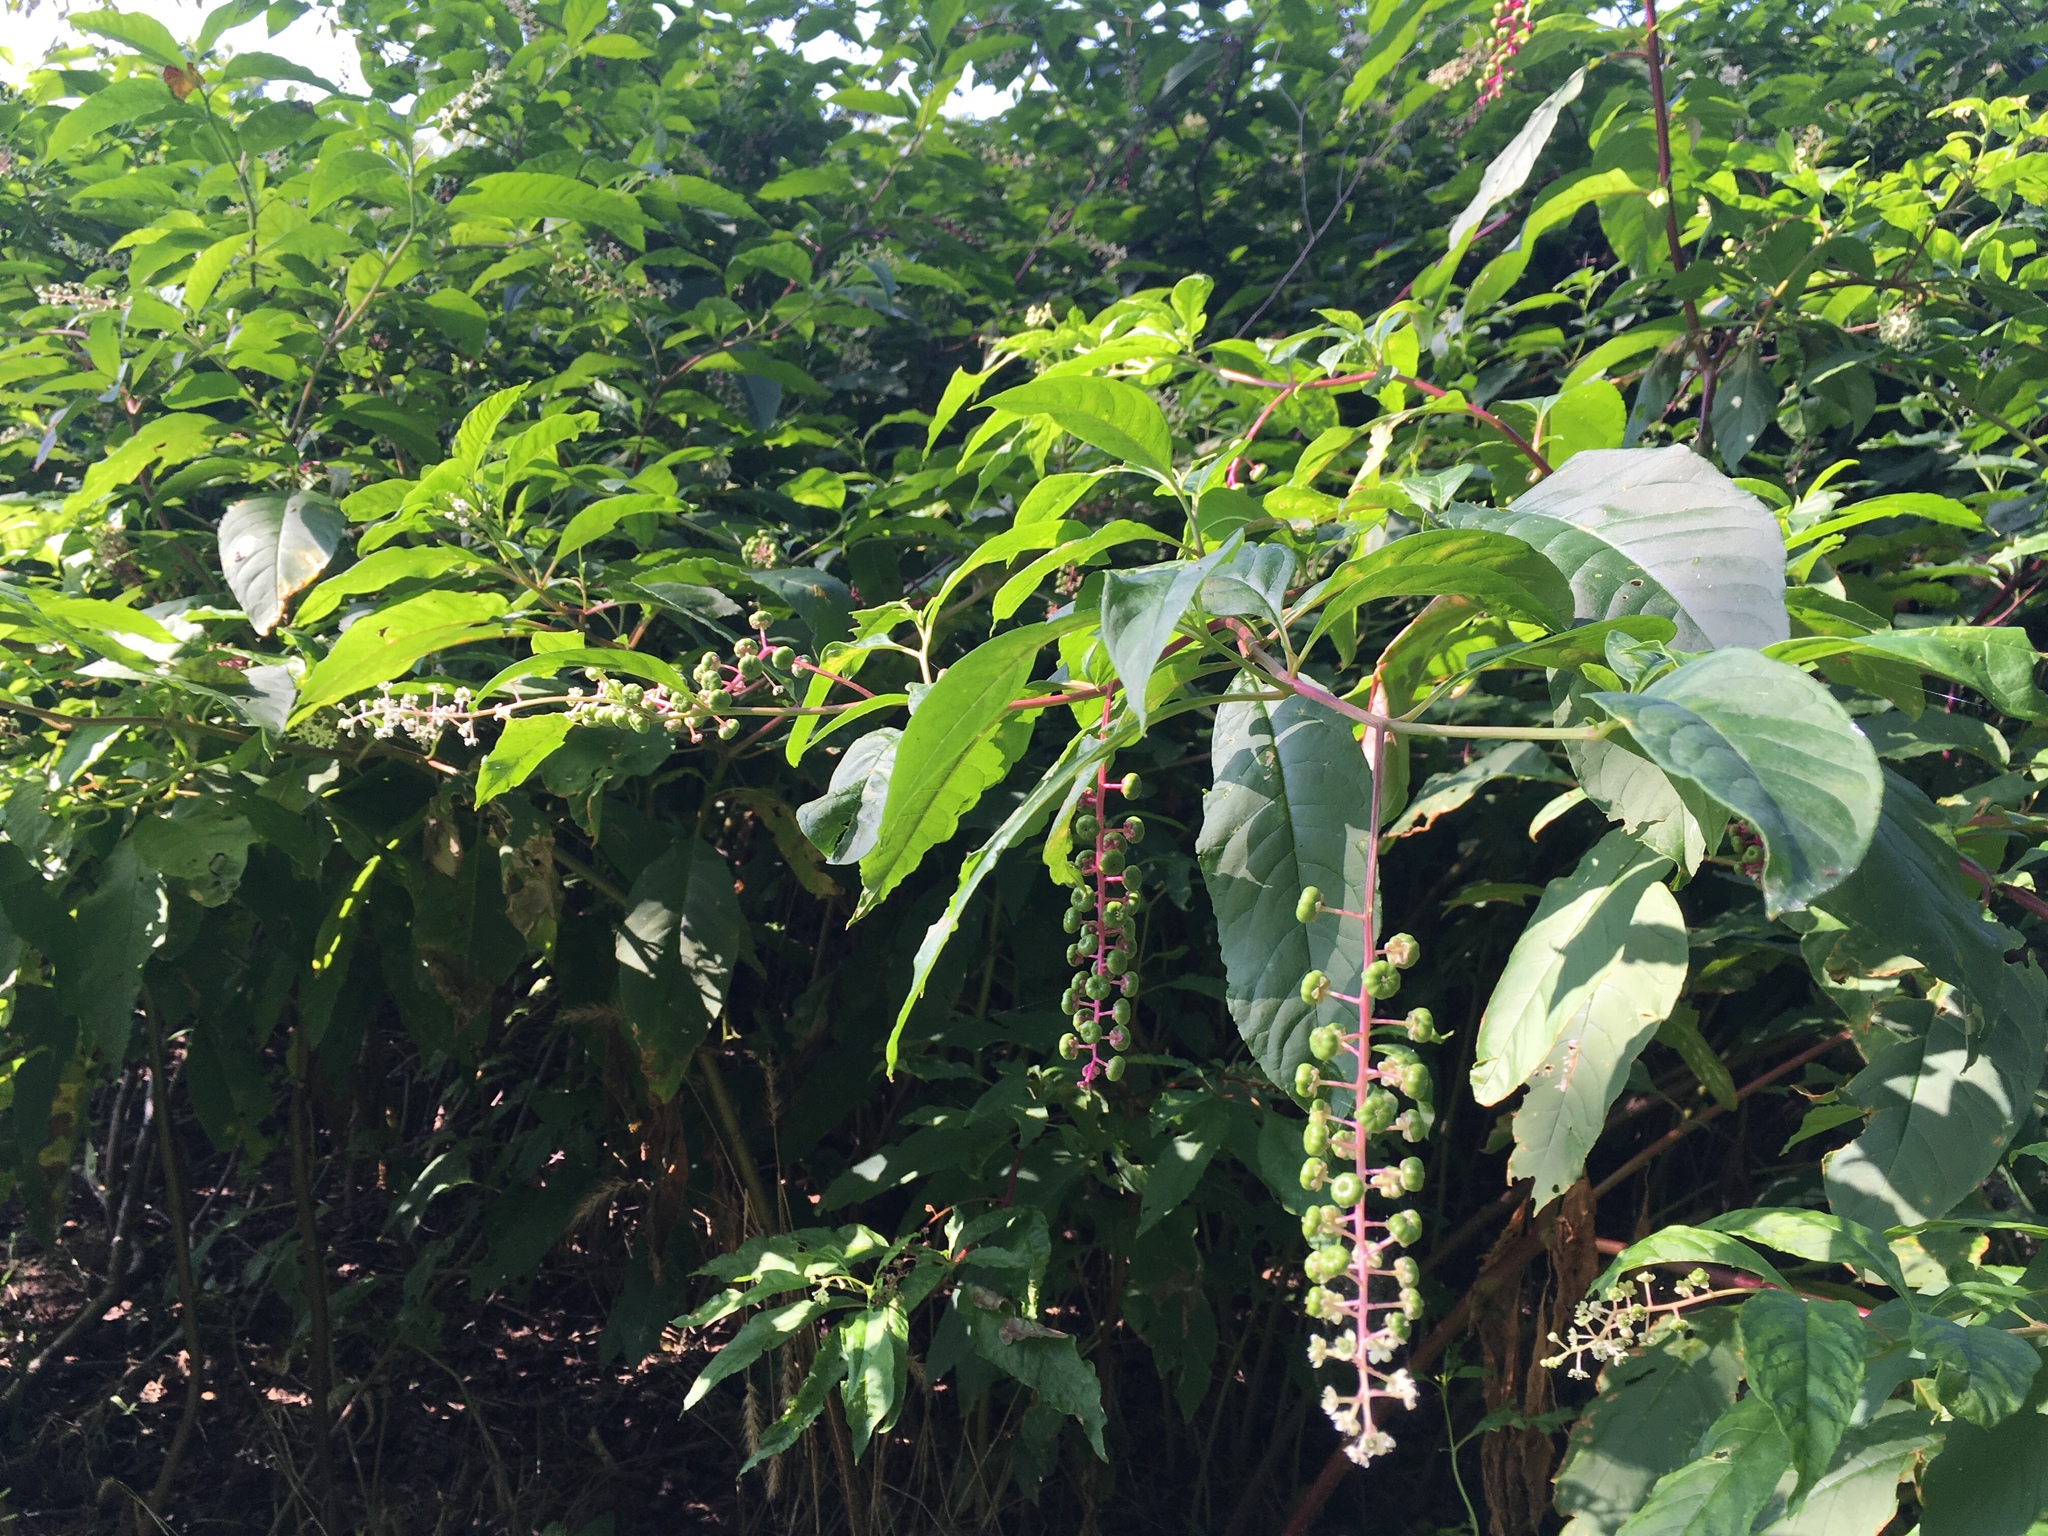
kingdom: Plantae
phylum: Tracheophyta
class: Magnoliopsida
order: Caryophyllales
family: Phytolaccaceae
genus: Phytolacca
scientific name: Phytolacca americana
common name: American pokeweed
